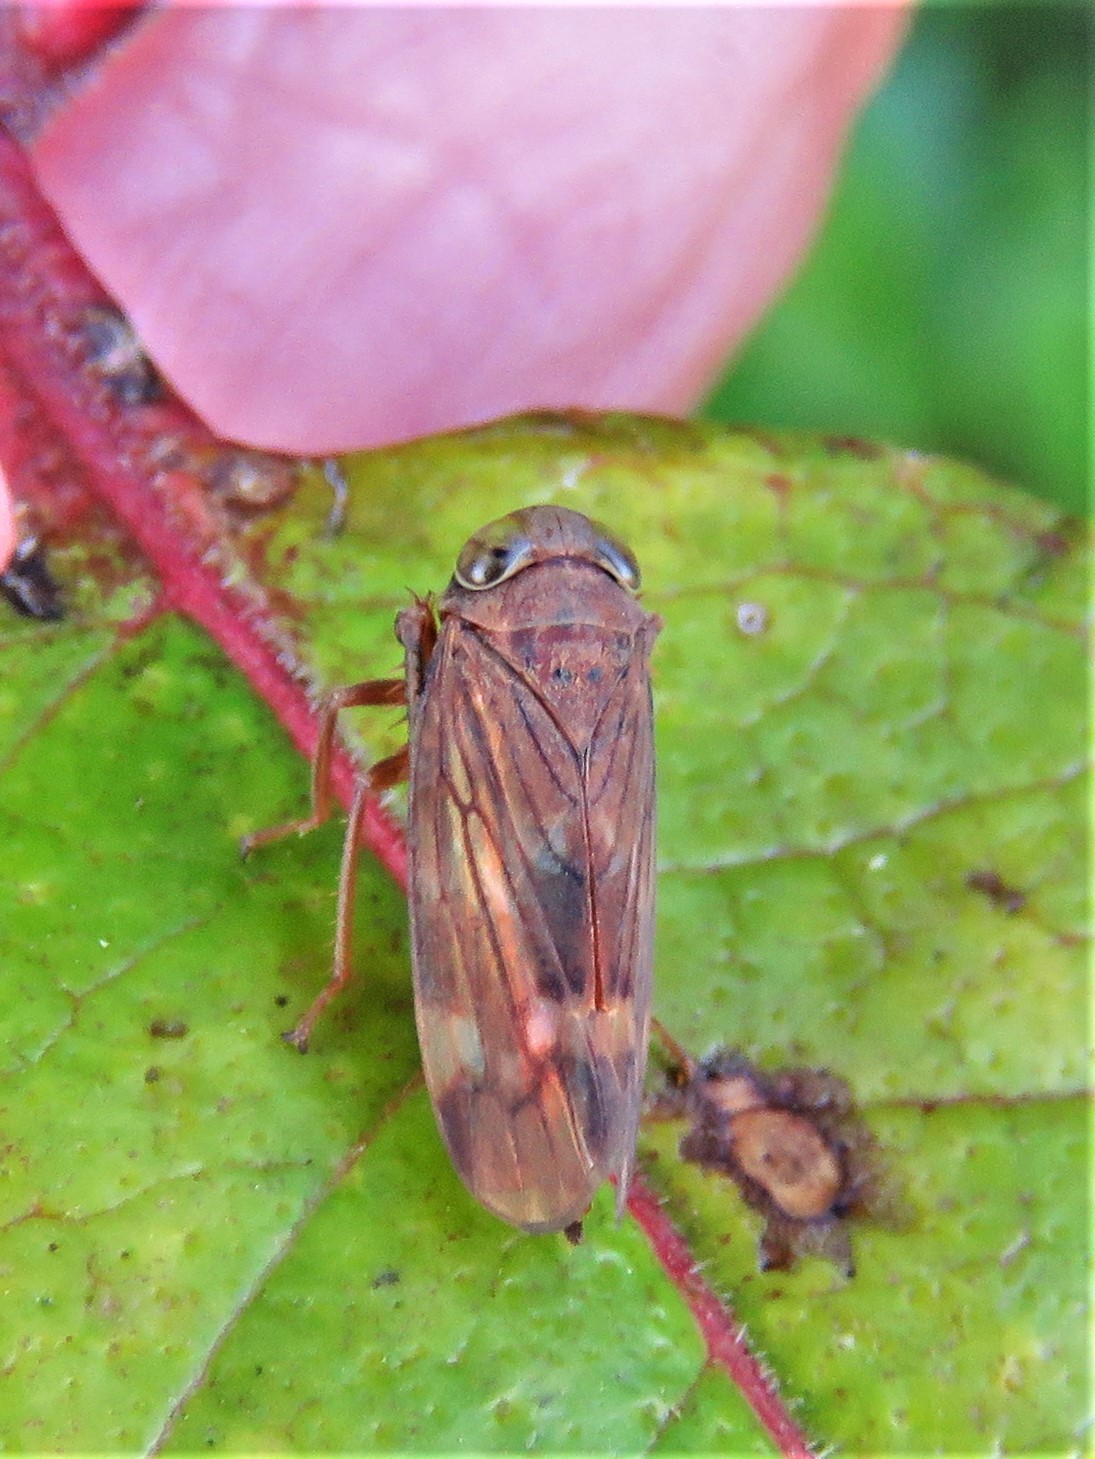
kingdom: Animalia
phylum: Arthropoda
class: Insecta
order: Hemiptera
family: Cicadellidae
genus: Jikradia
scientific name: Jikradia olitoria
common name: Coppery leafhopper
